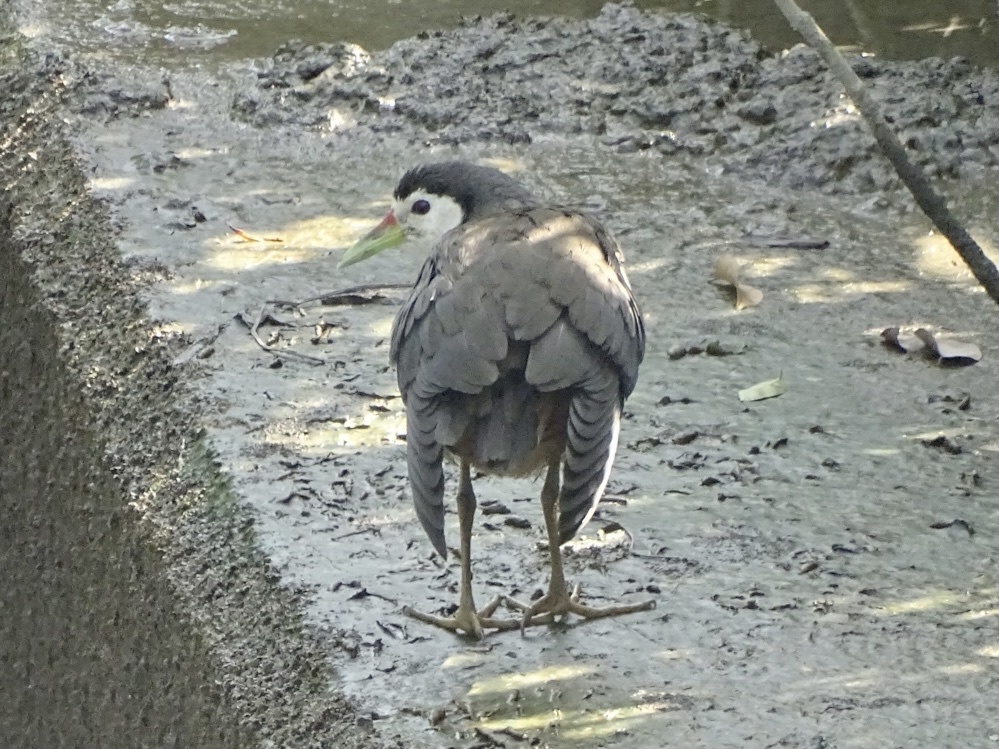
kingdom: Animalia
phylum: Chordata
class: Aves
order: Gruiformes
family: Rallidae
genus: Amaurornis
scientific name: Amaurornis phoenicurus
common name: White-breasted waterhen
